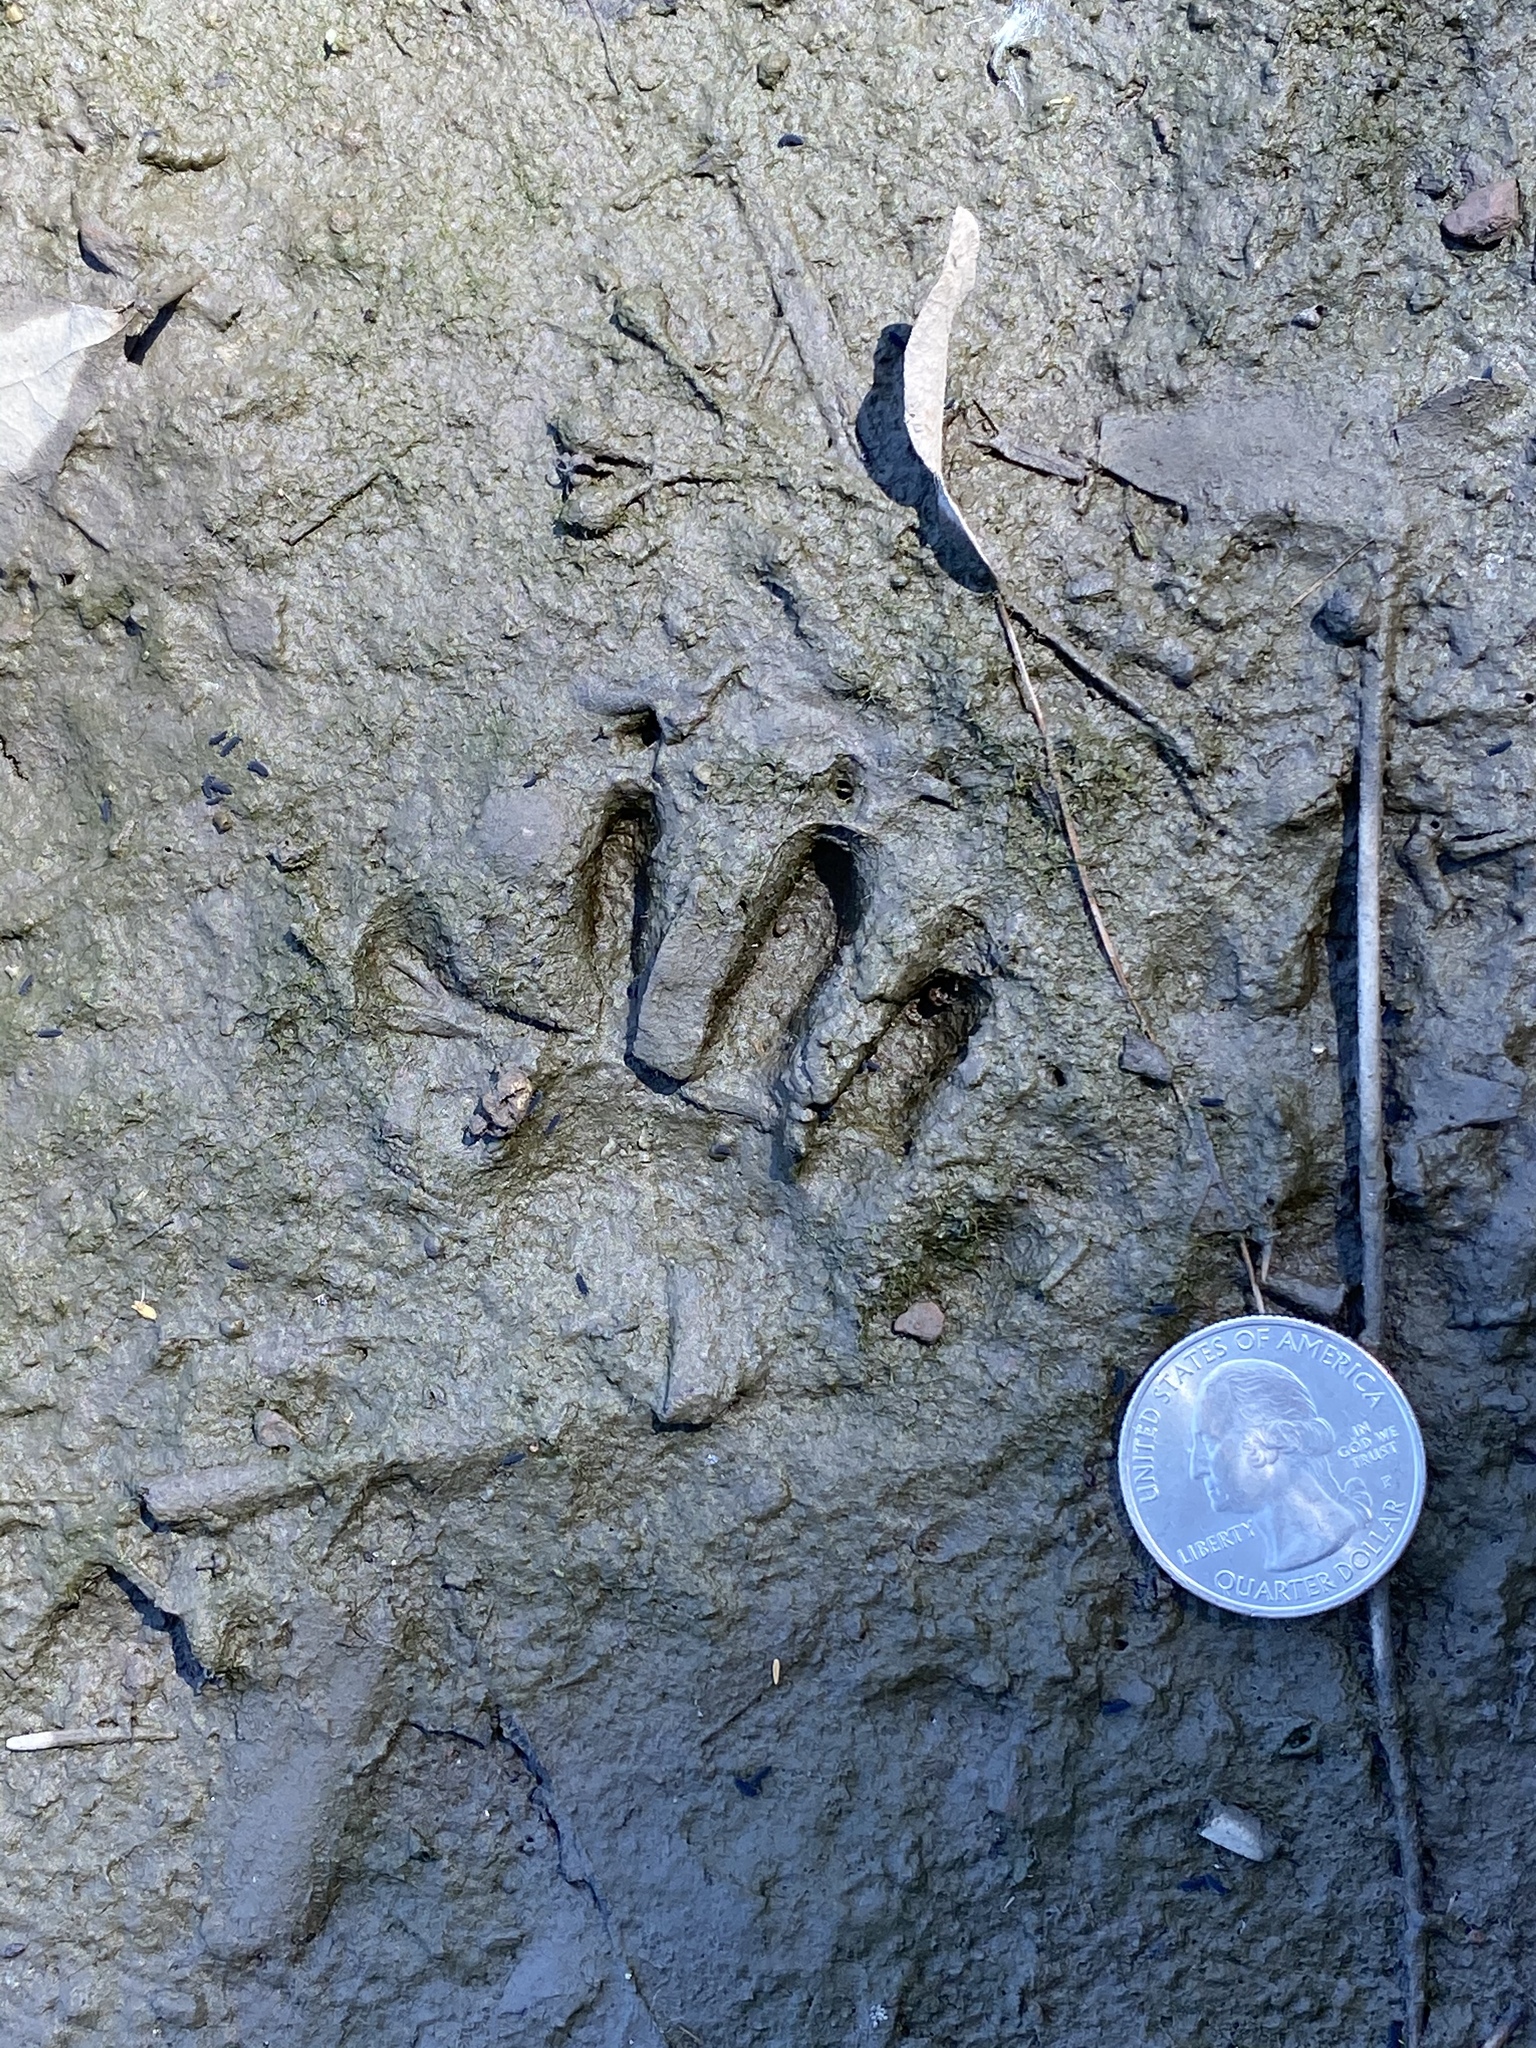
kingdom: Animalia
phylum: Chordata
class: Mammalia
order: Carnivora
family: Procyonidae
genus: Procyon
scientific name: Procyon lotor
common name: Raccoon
